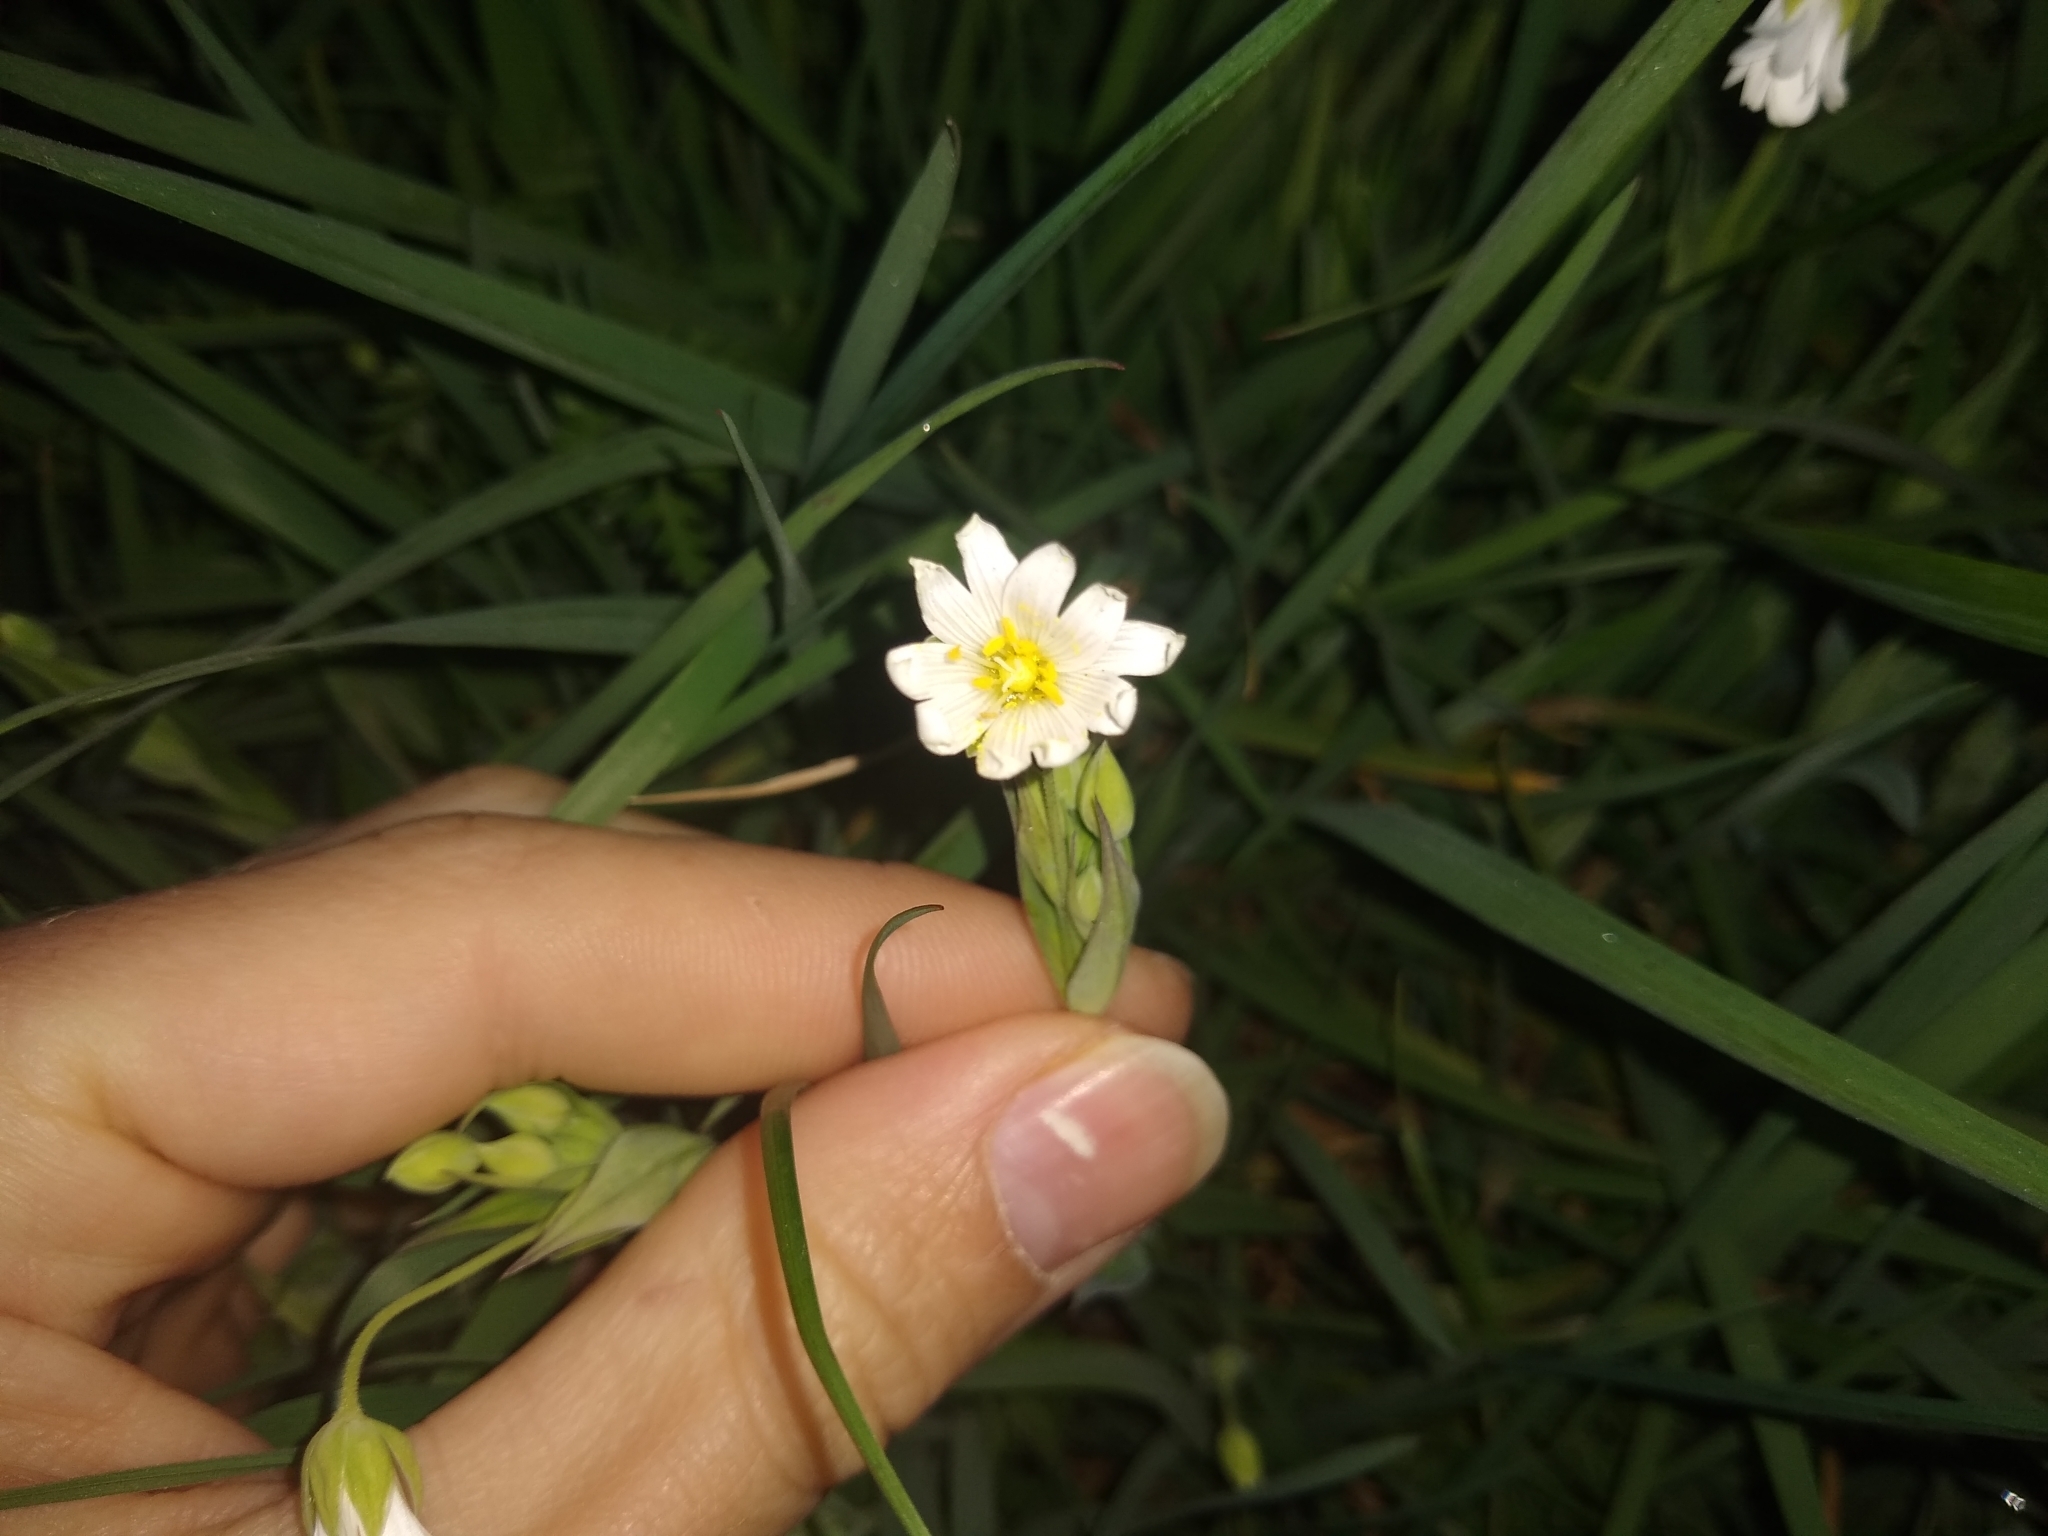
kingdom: Plantae
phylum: Tracheophyta
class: Magnoliopsida
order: Caryophyllales
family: Caryophyllaceae
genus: Rabelera
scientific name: Rabelera holostea
